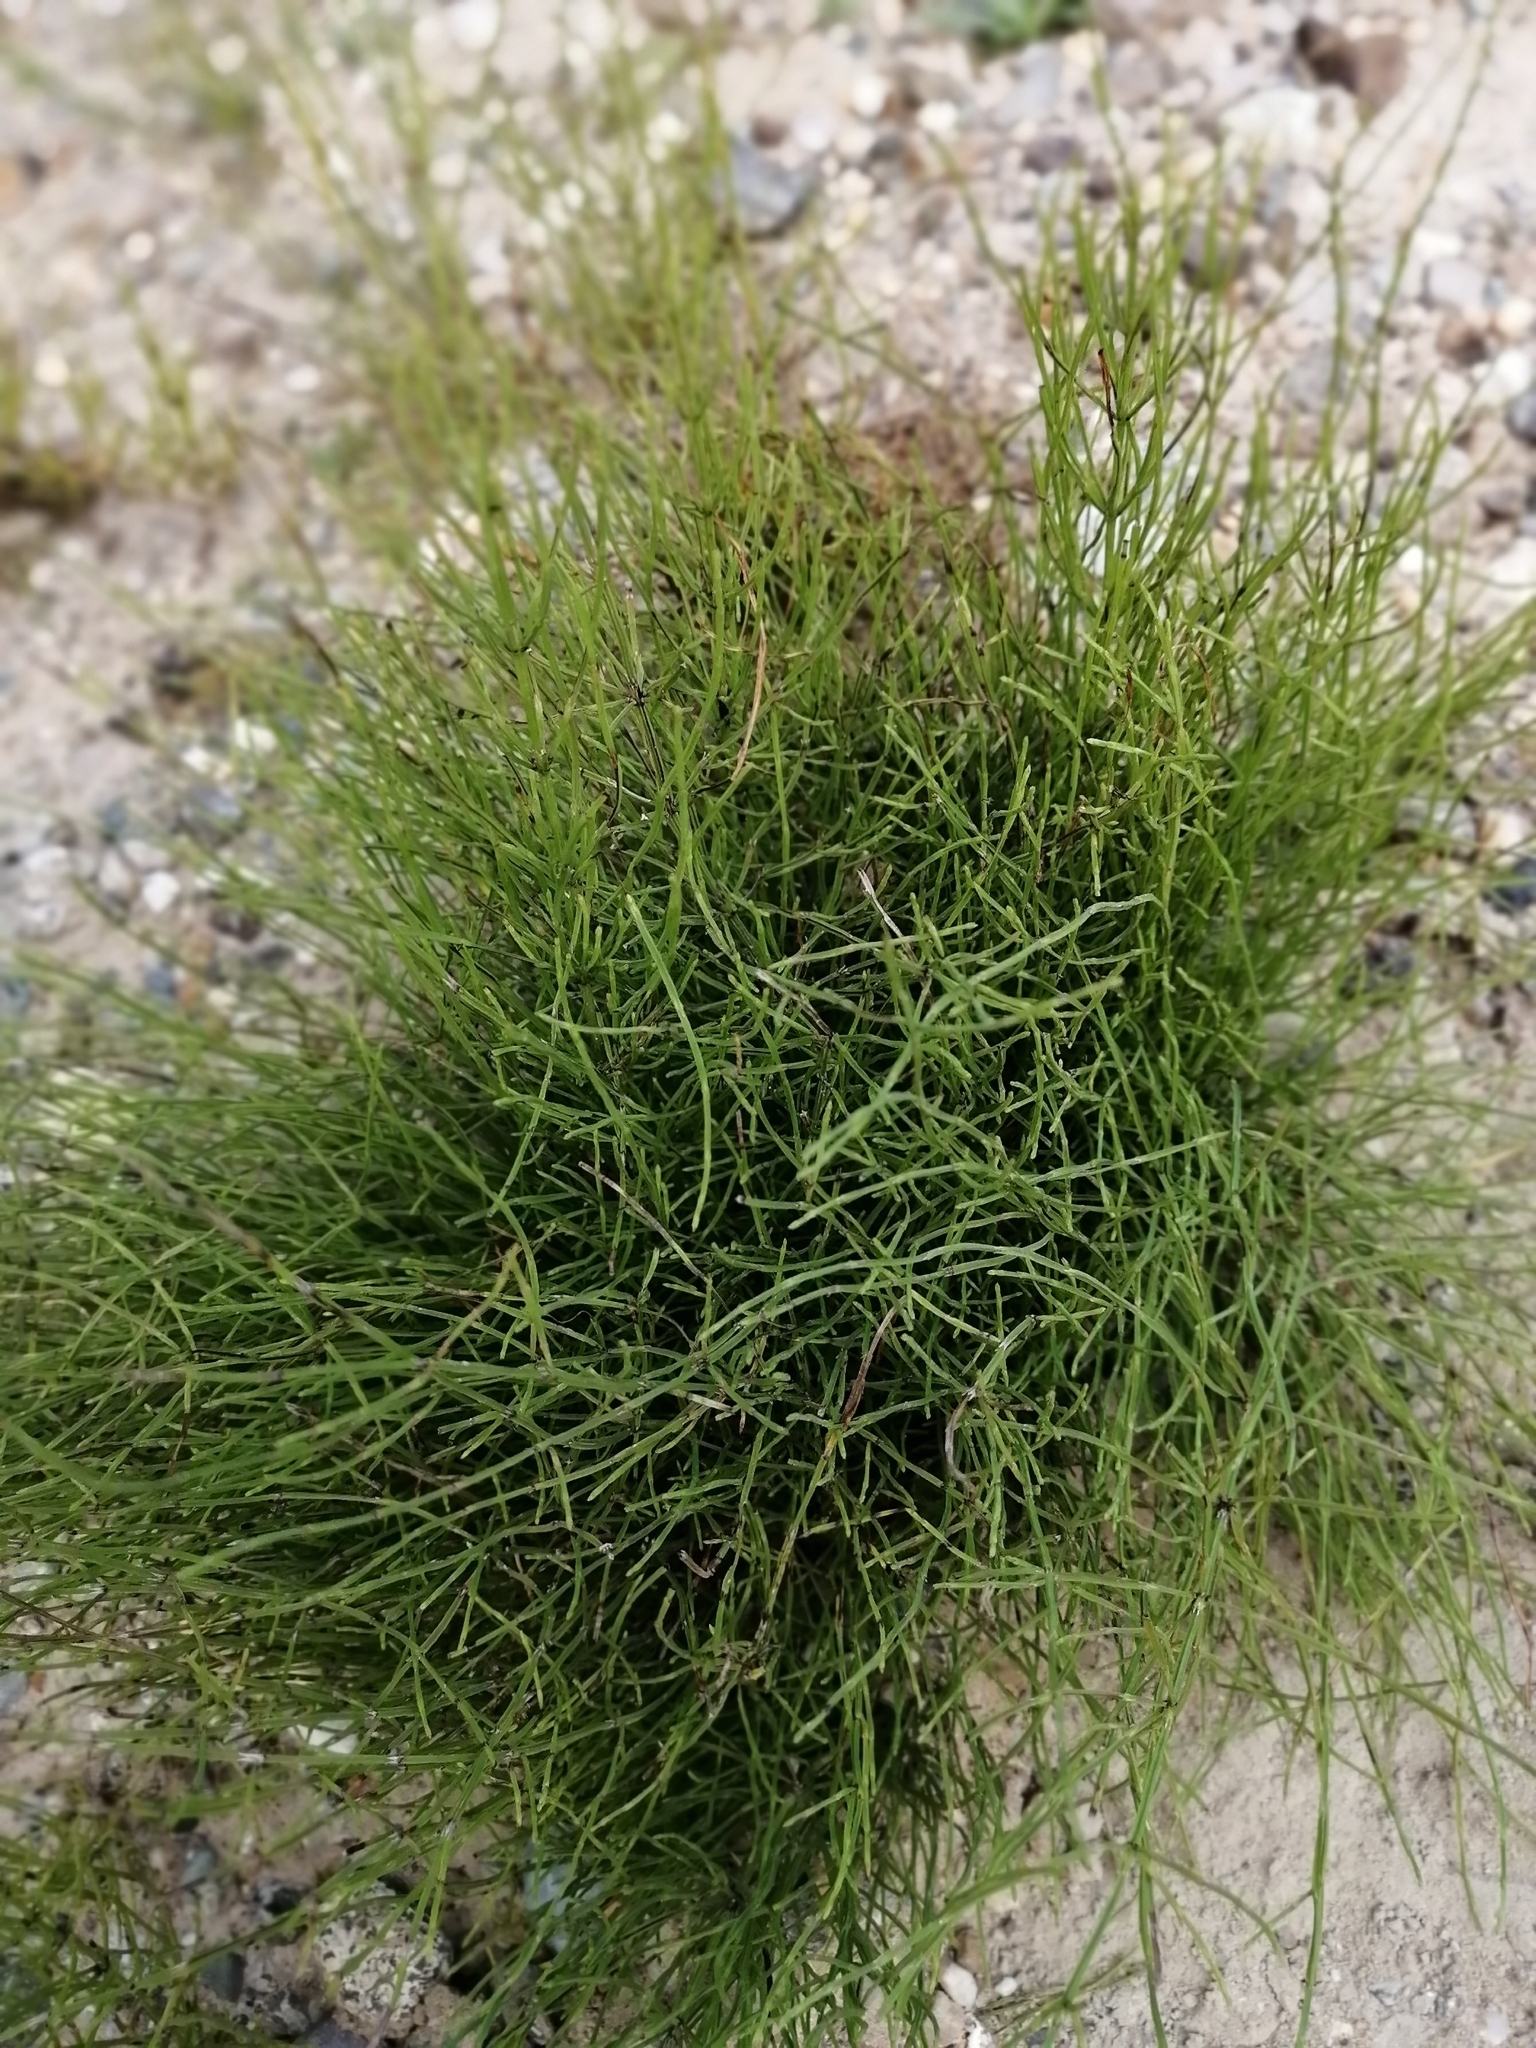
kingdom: Plantae
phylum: Tracheophyta
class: Polypodiopsida
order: Equisetales
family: Equisetaceae
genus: Equisetum
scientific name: Equisetum arvense
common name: Field horsetail
